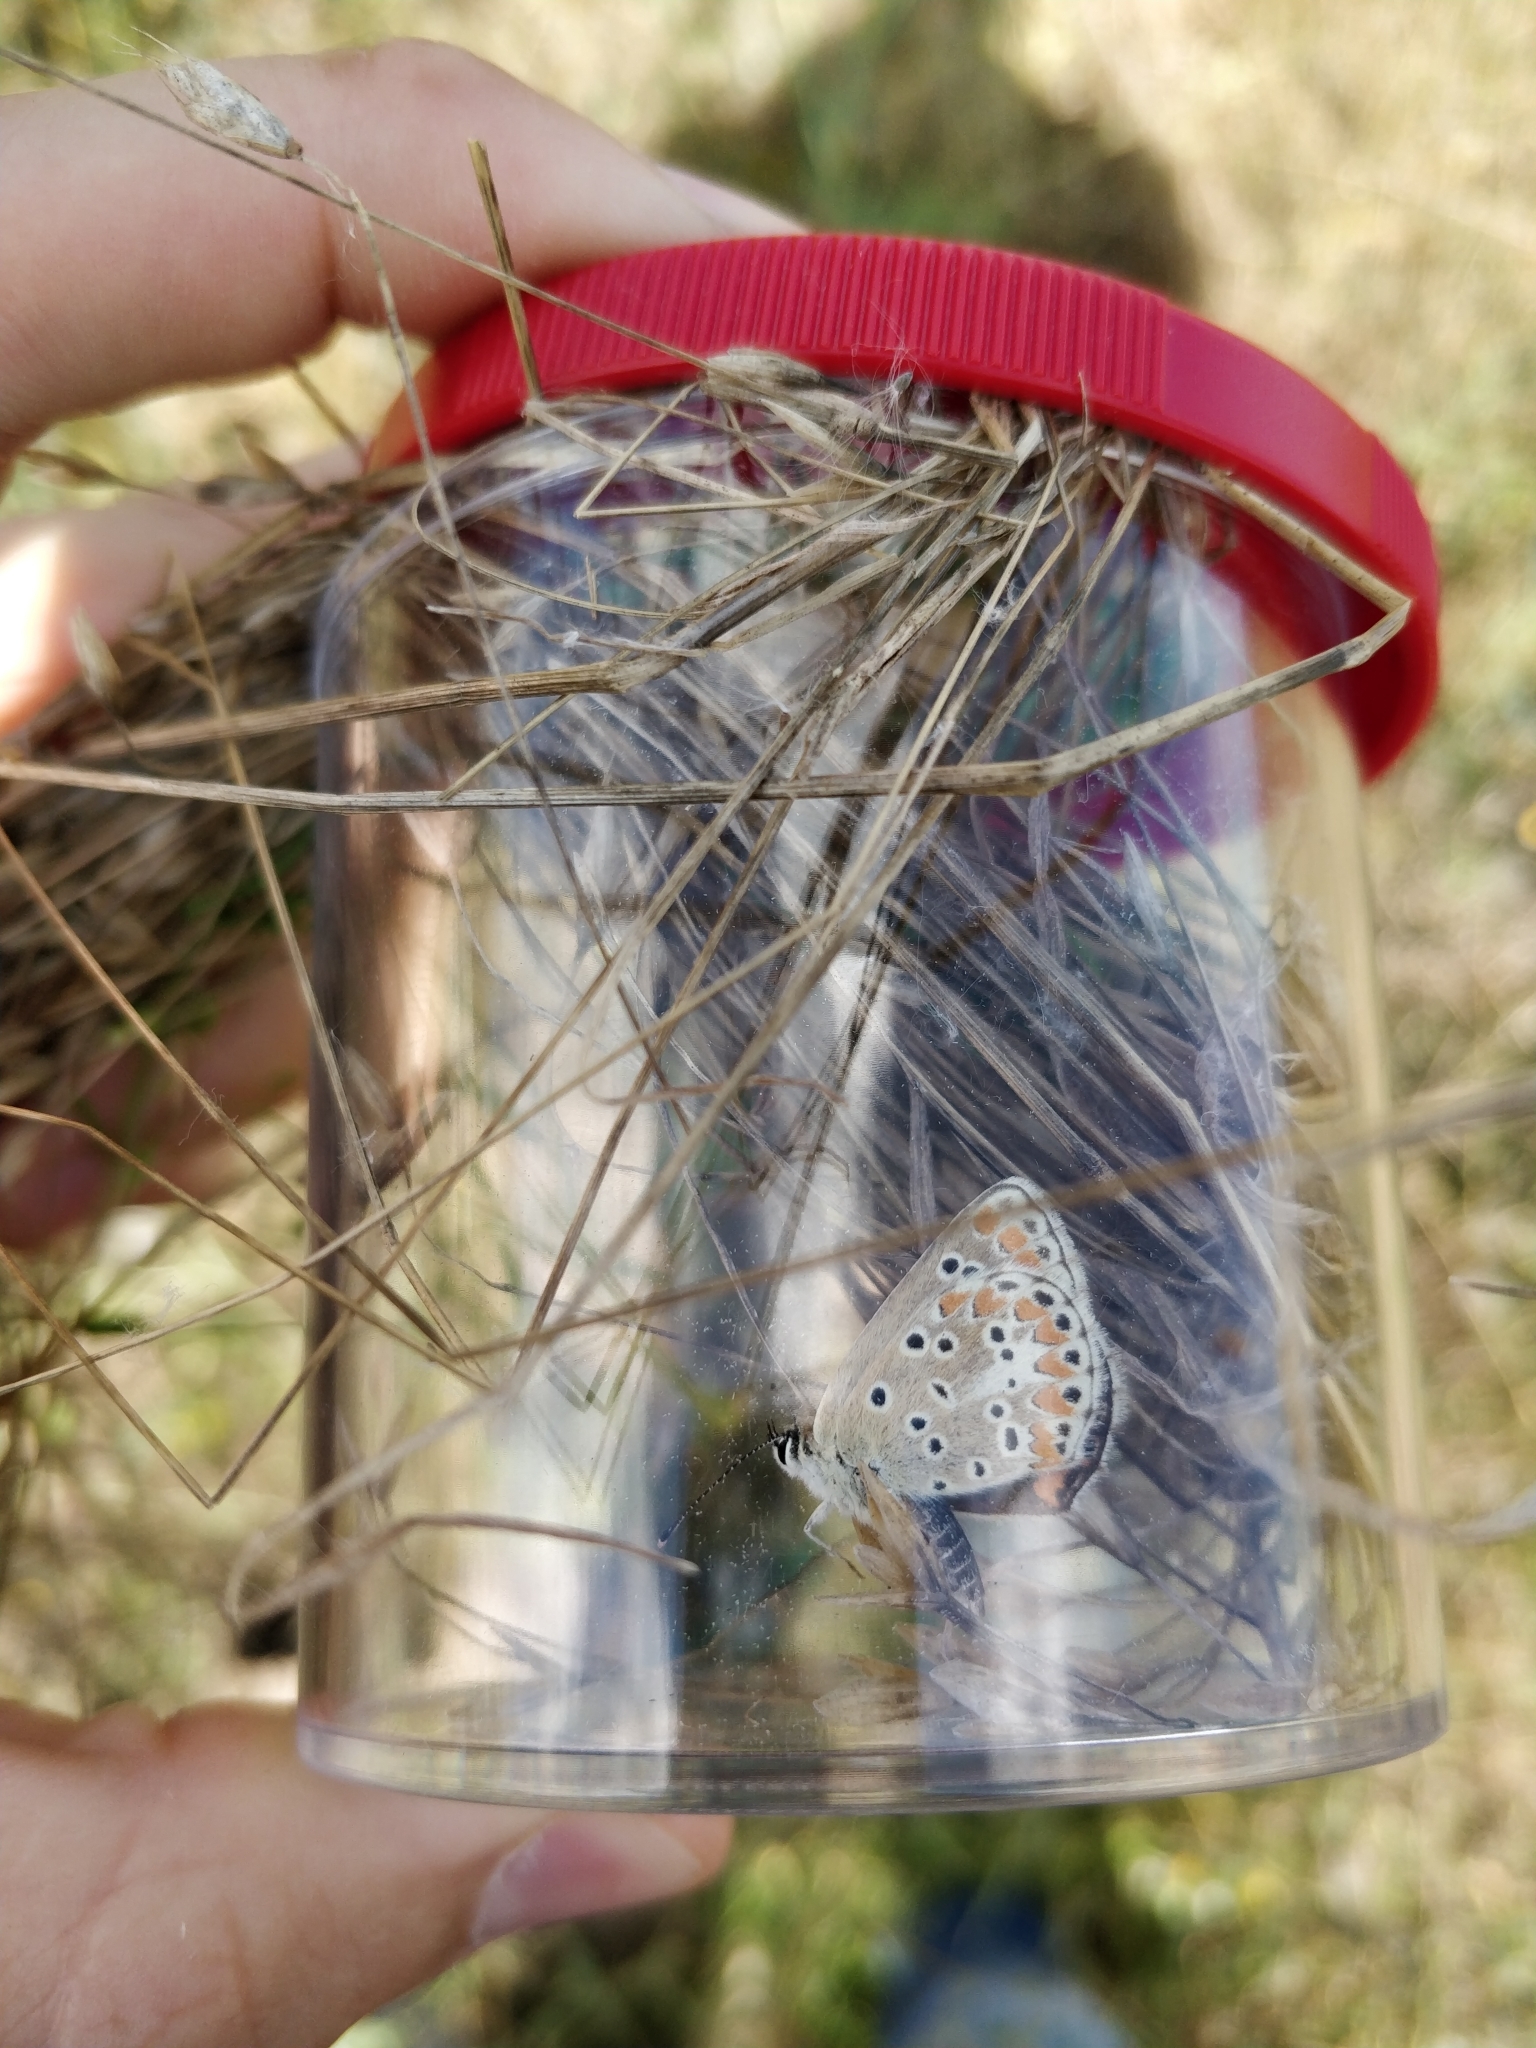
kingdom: Animalia
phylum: Arthropoda
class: Insecta
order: Lepidoptera
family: Lycaenidae
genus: Aricia
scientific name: Aricia agestis
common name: Brown argus
